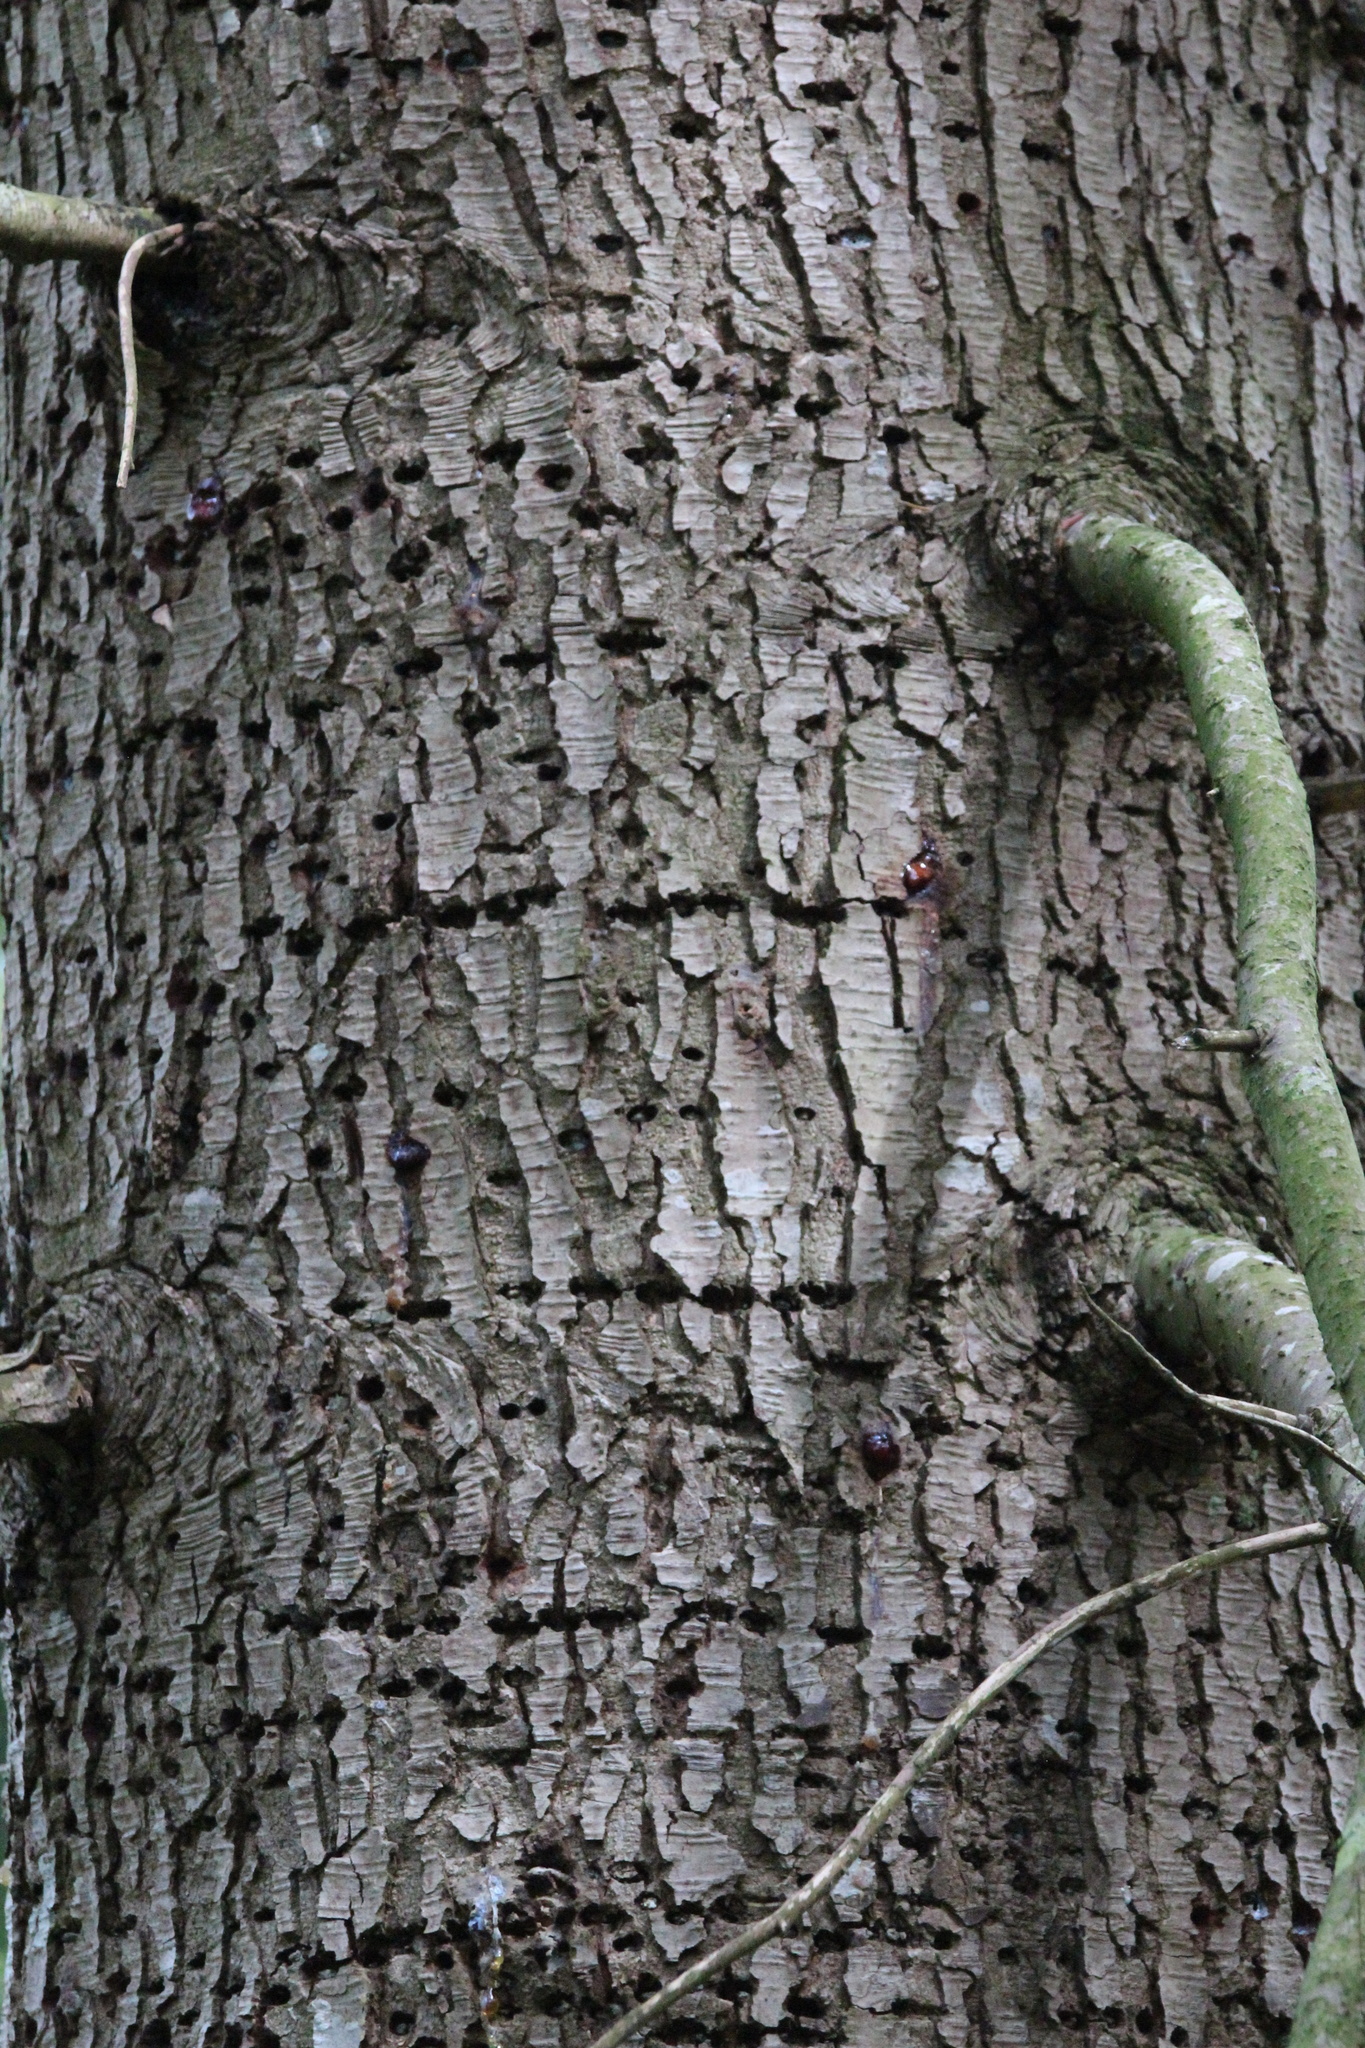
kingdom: Animalia
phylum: Chordata
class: Aves
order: Piciformes
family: Picidae
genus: Sphyrapicus
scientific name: Sphyrapicus ruber
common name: Red-breasted sapsucker
